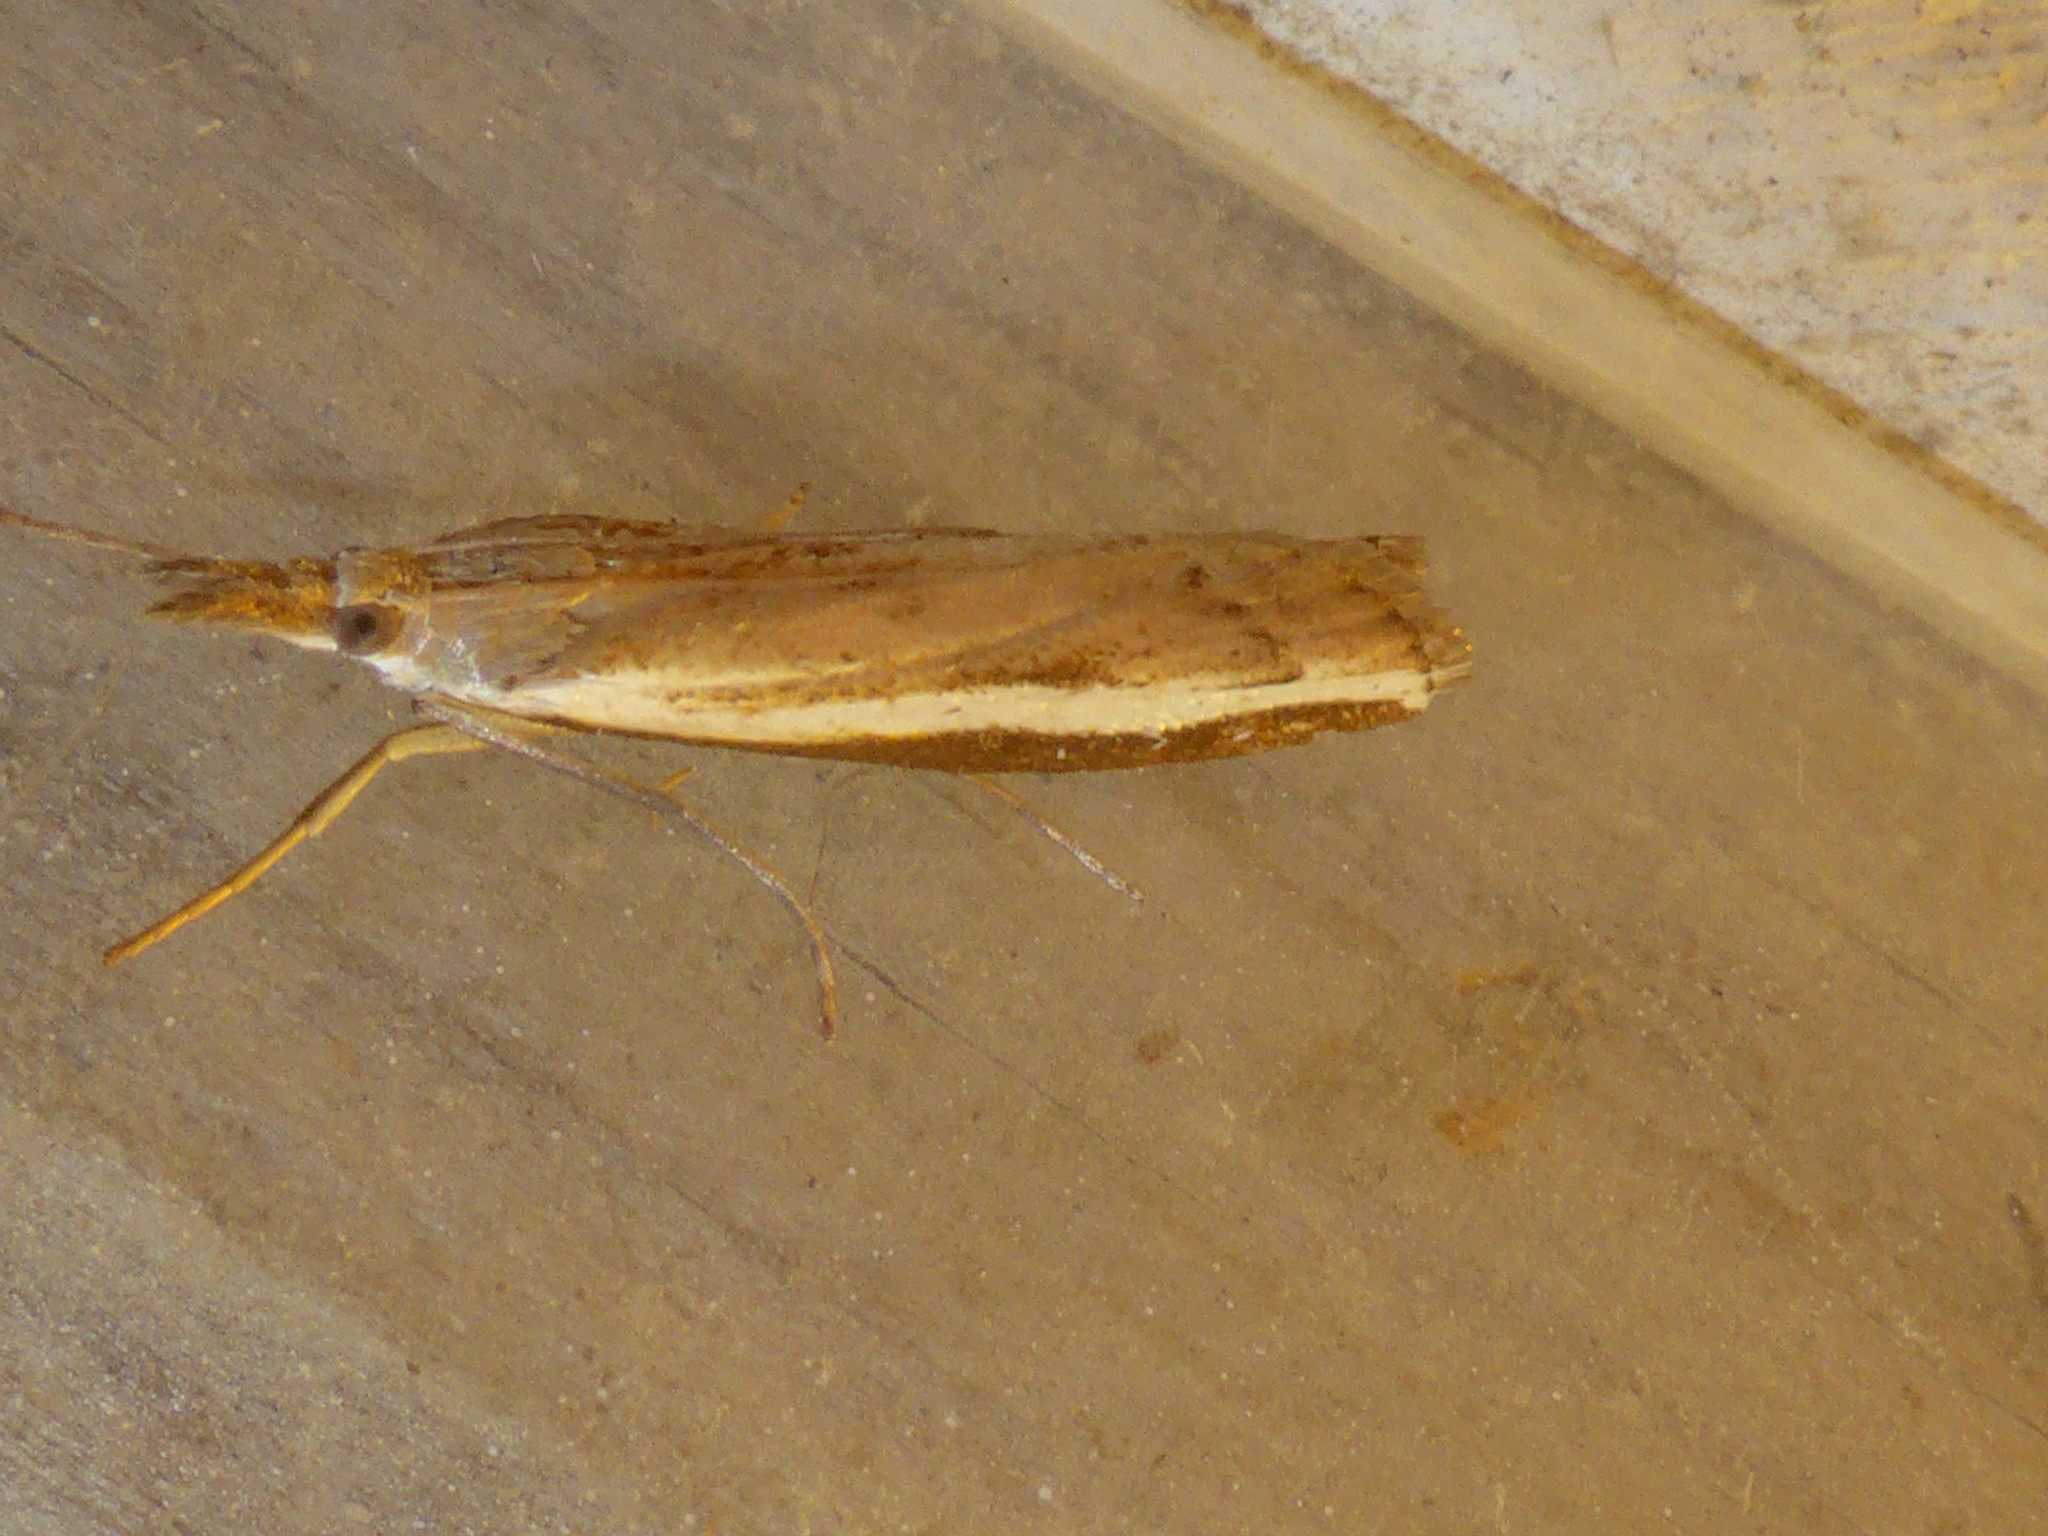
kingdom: Animalia
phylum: Arthropoda
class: Insecta
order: Lepidoptera
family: Crambidae
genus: Orocrambus
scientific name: Orocrambus flexuosellus
